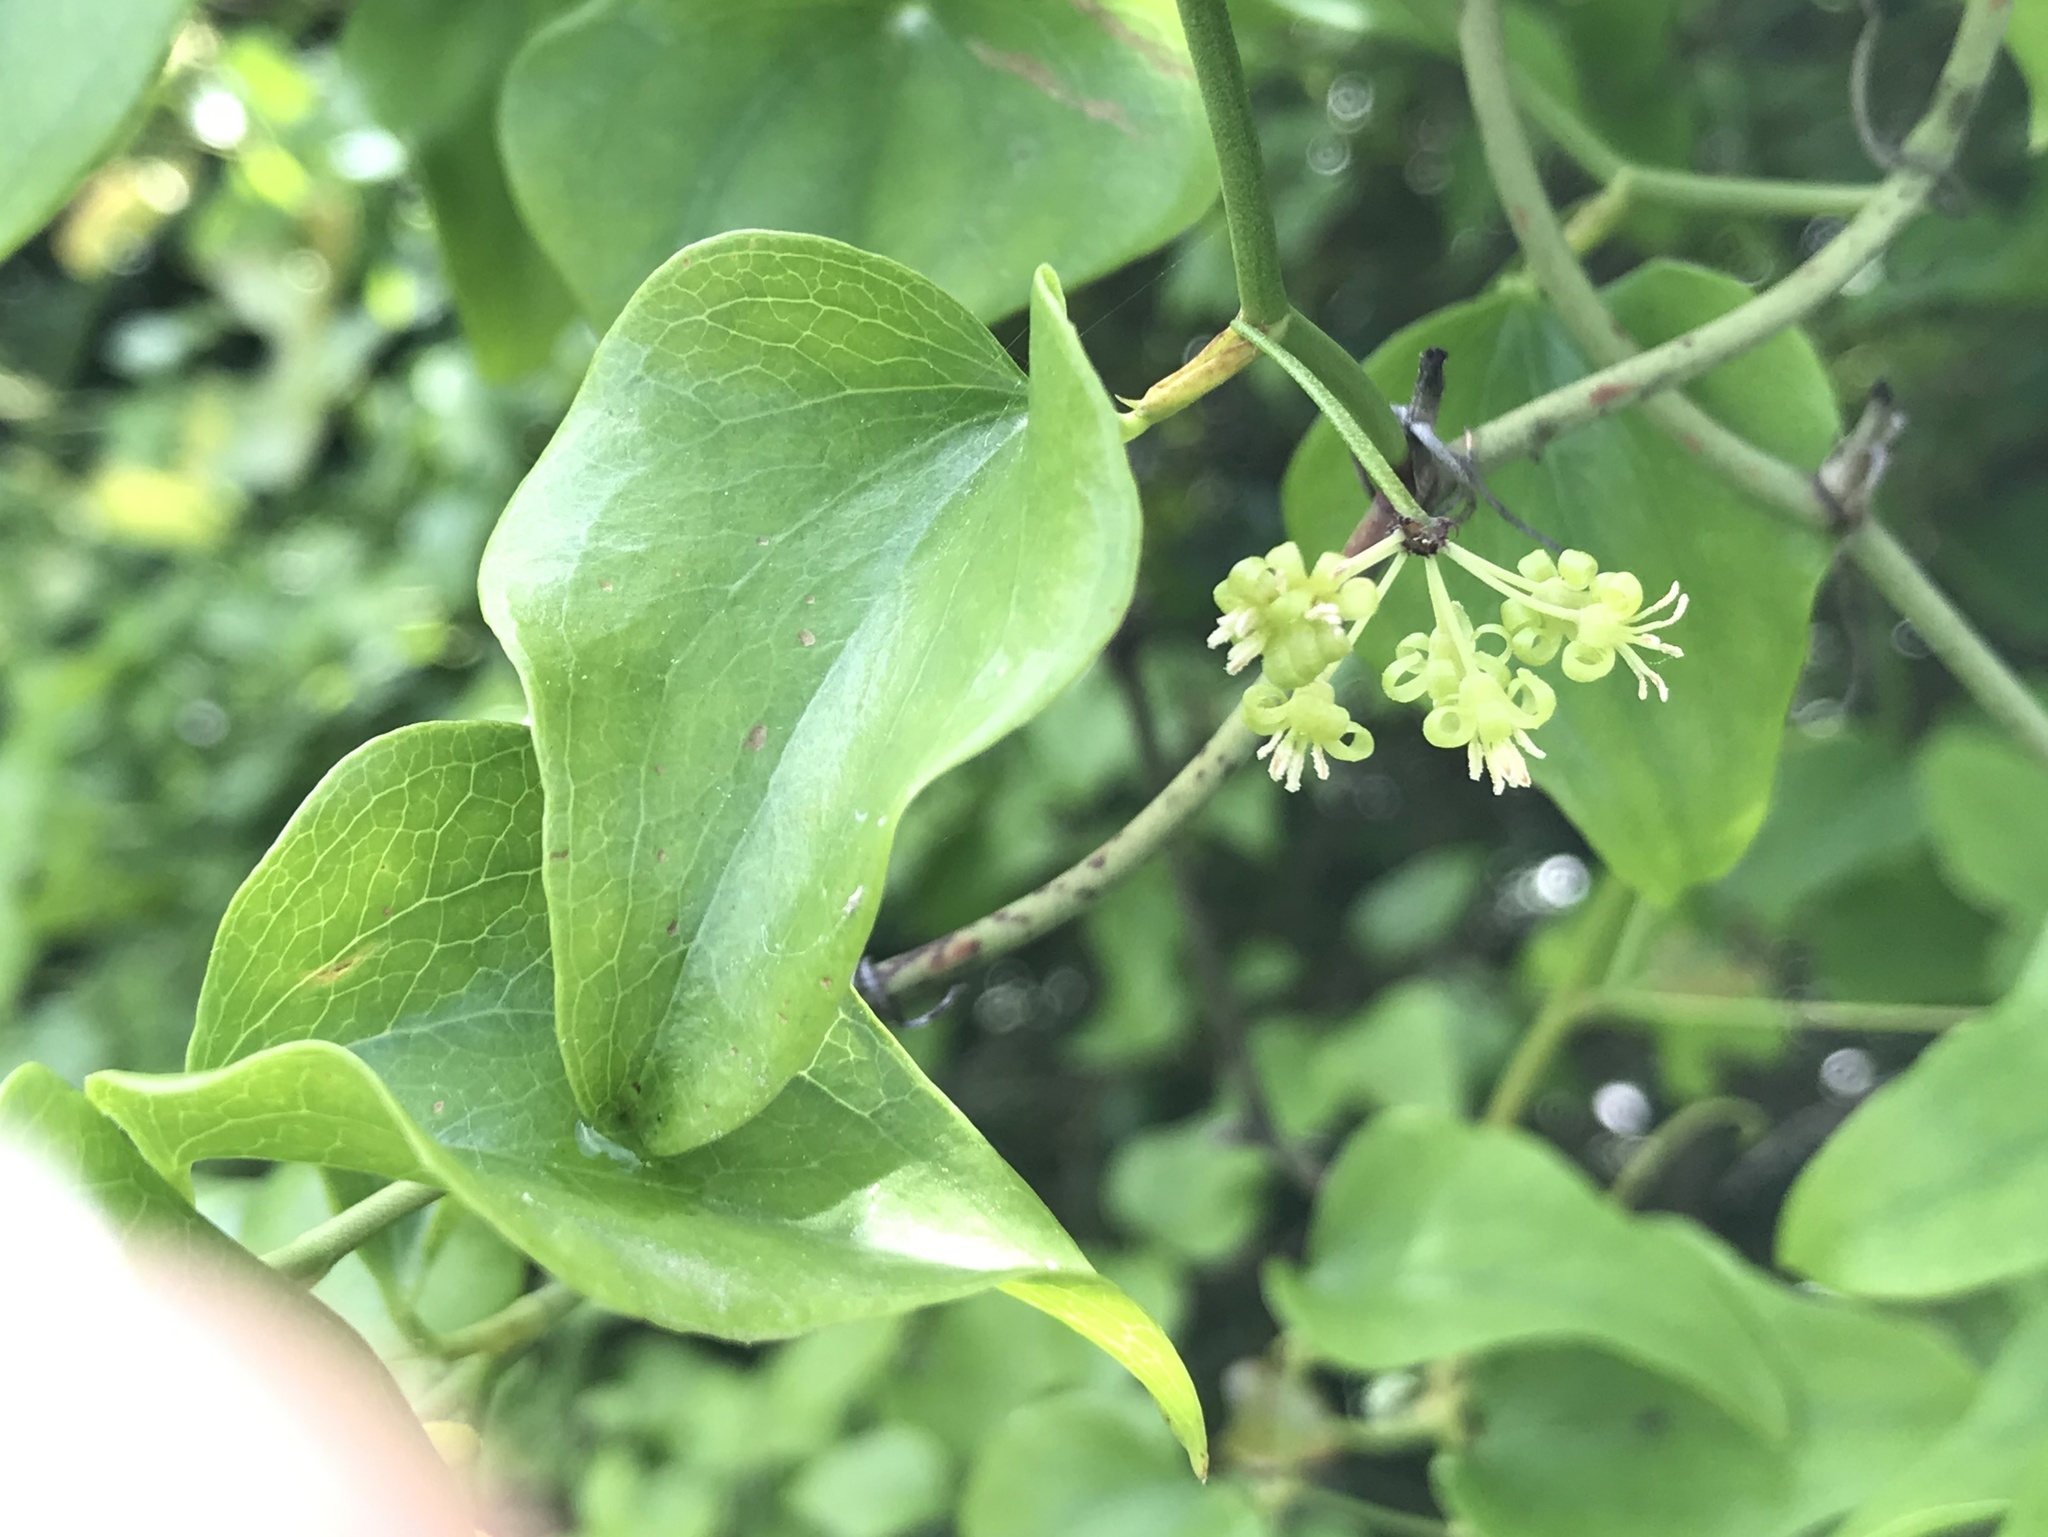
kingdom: Plantae
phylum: Tracheophyta
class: Liliopsida
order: Liliales
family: Smilacaceae
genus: Smilax
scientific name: Smilax bona-nox
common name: Catbrier
